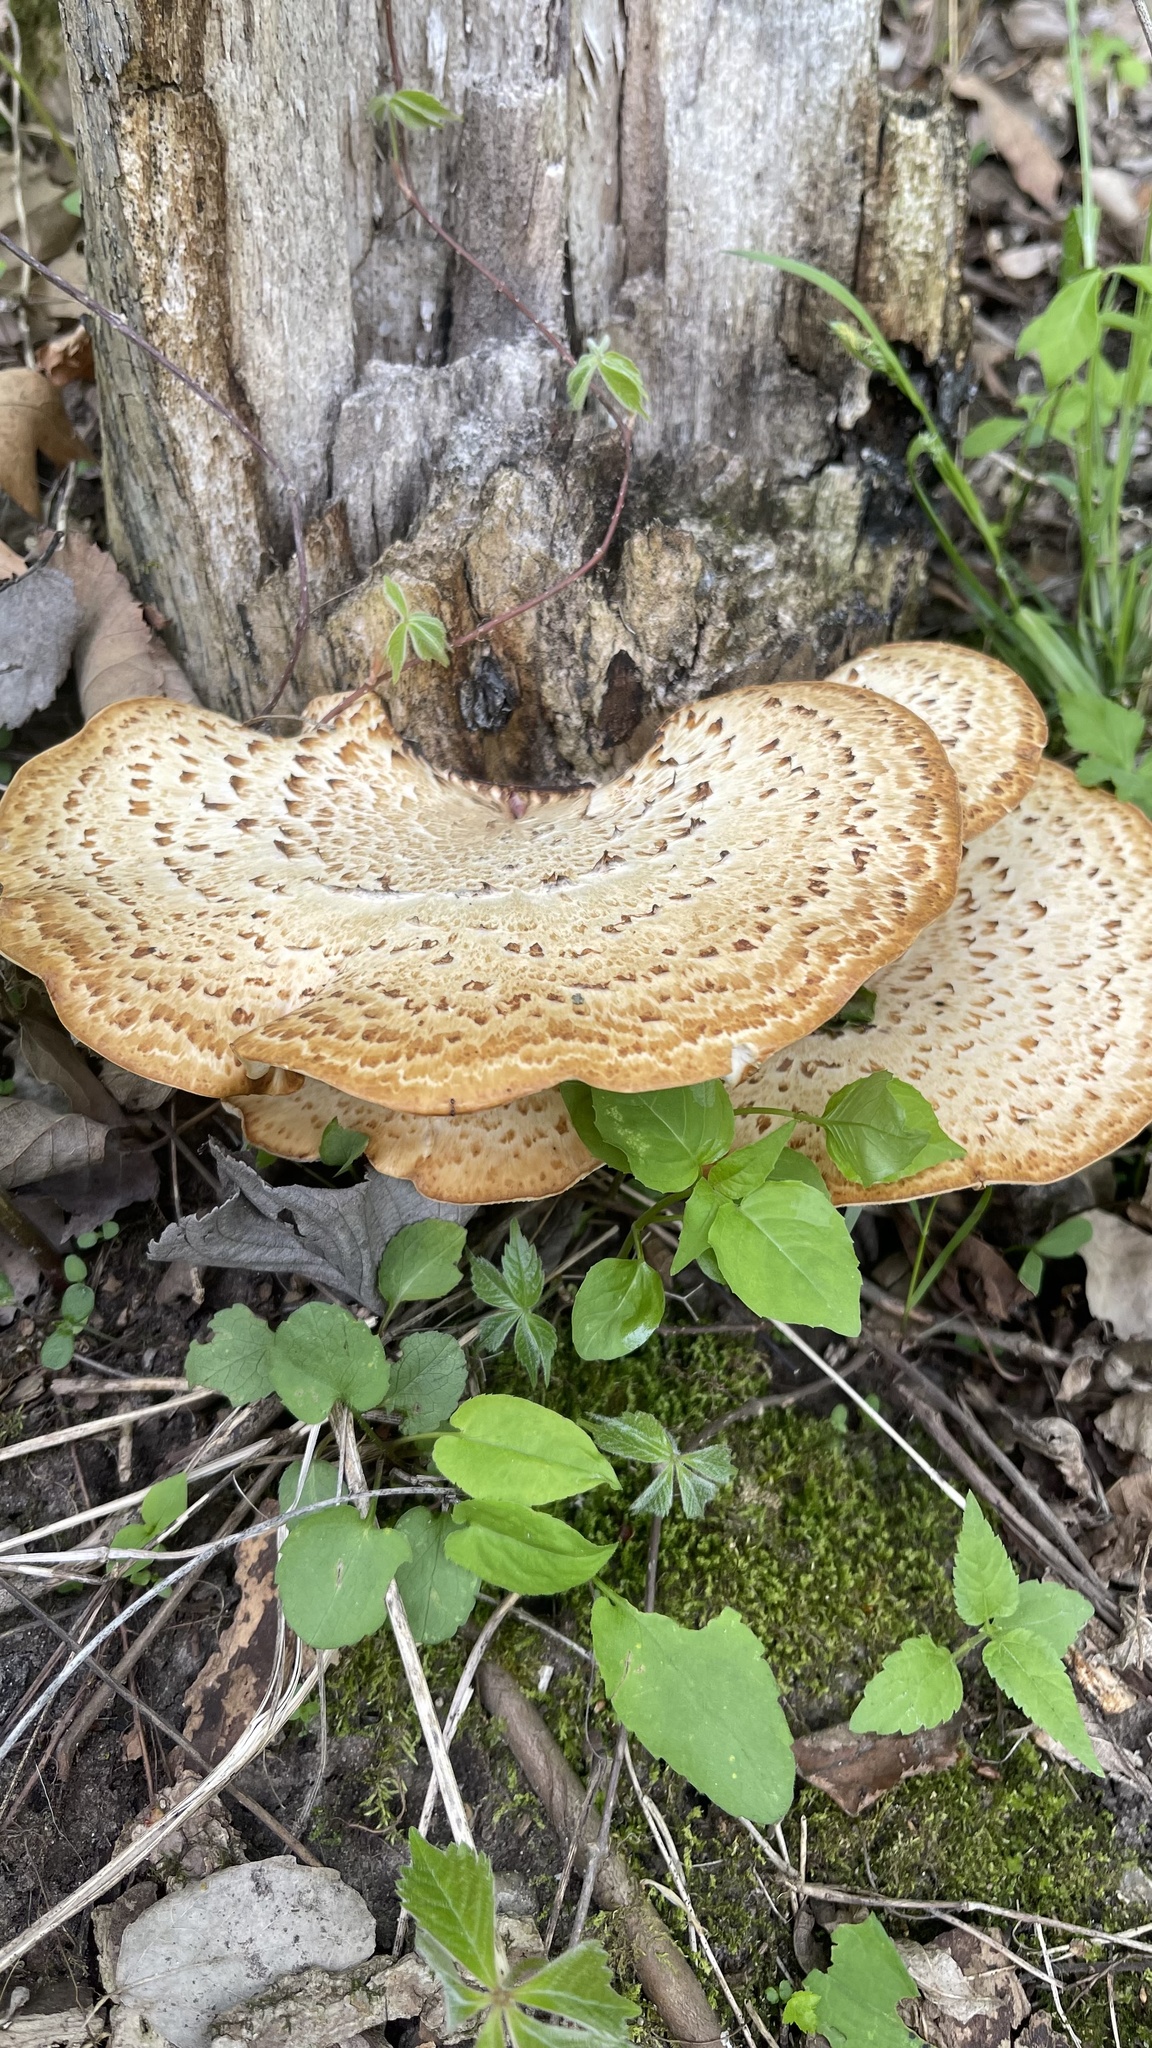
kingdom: Fungi
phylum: Basidiomycota
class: Agaricomycetes
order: Polyporales
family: Polyporaceae
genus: Cerioporus
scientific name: Cerioporus squamosus
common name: Dryad's saddle
